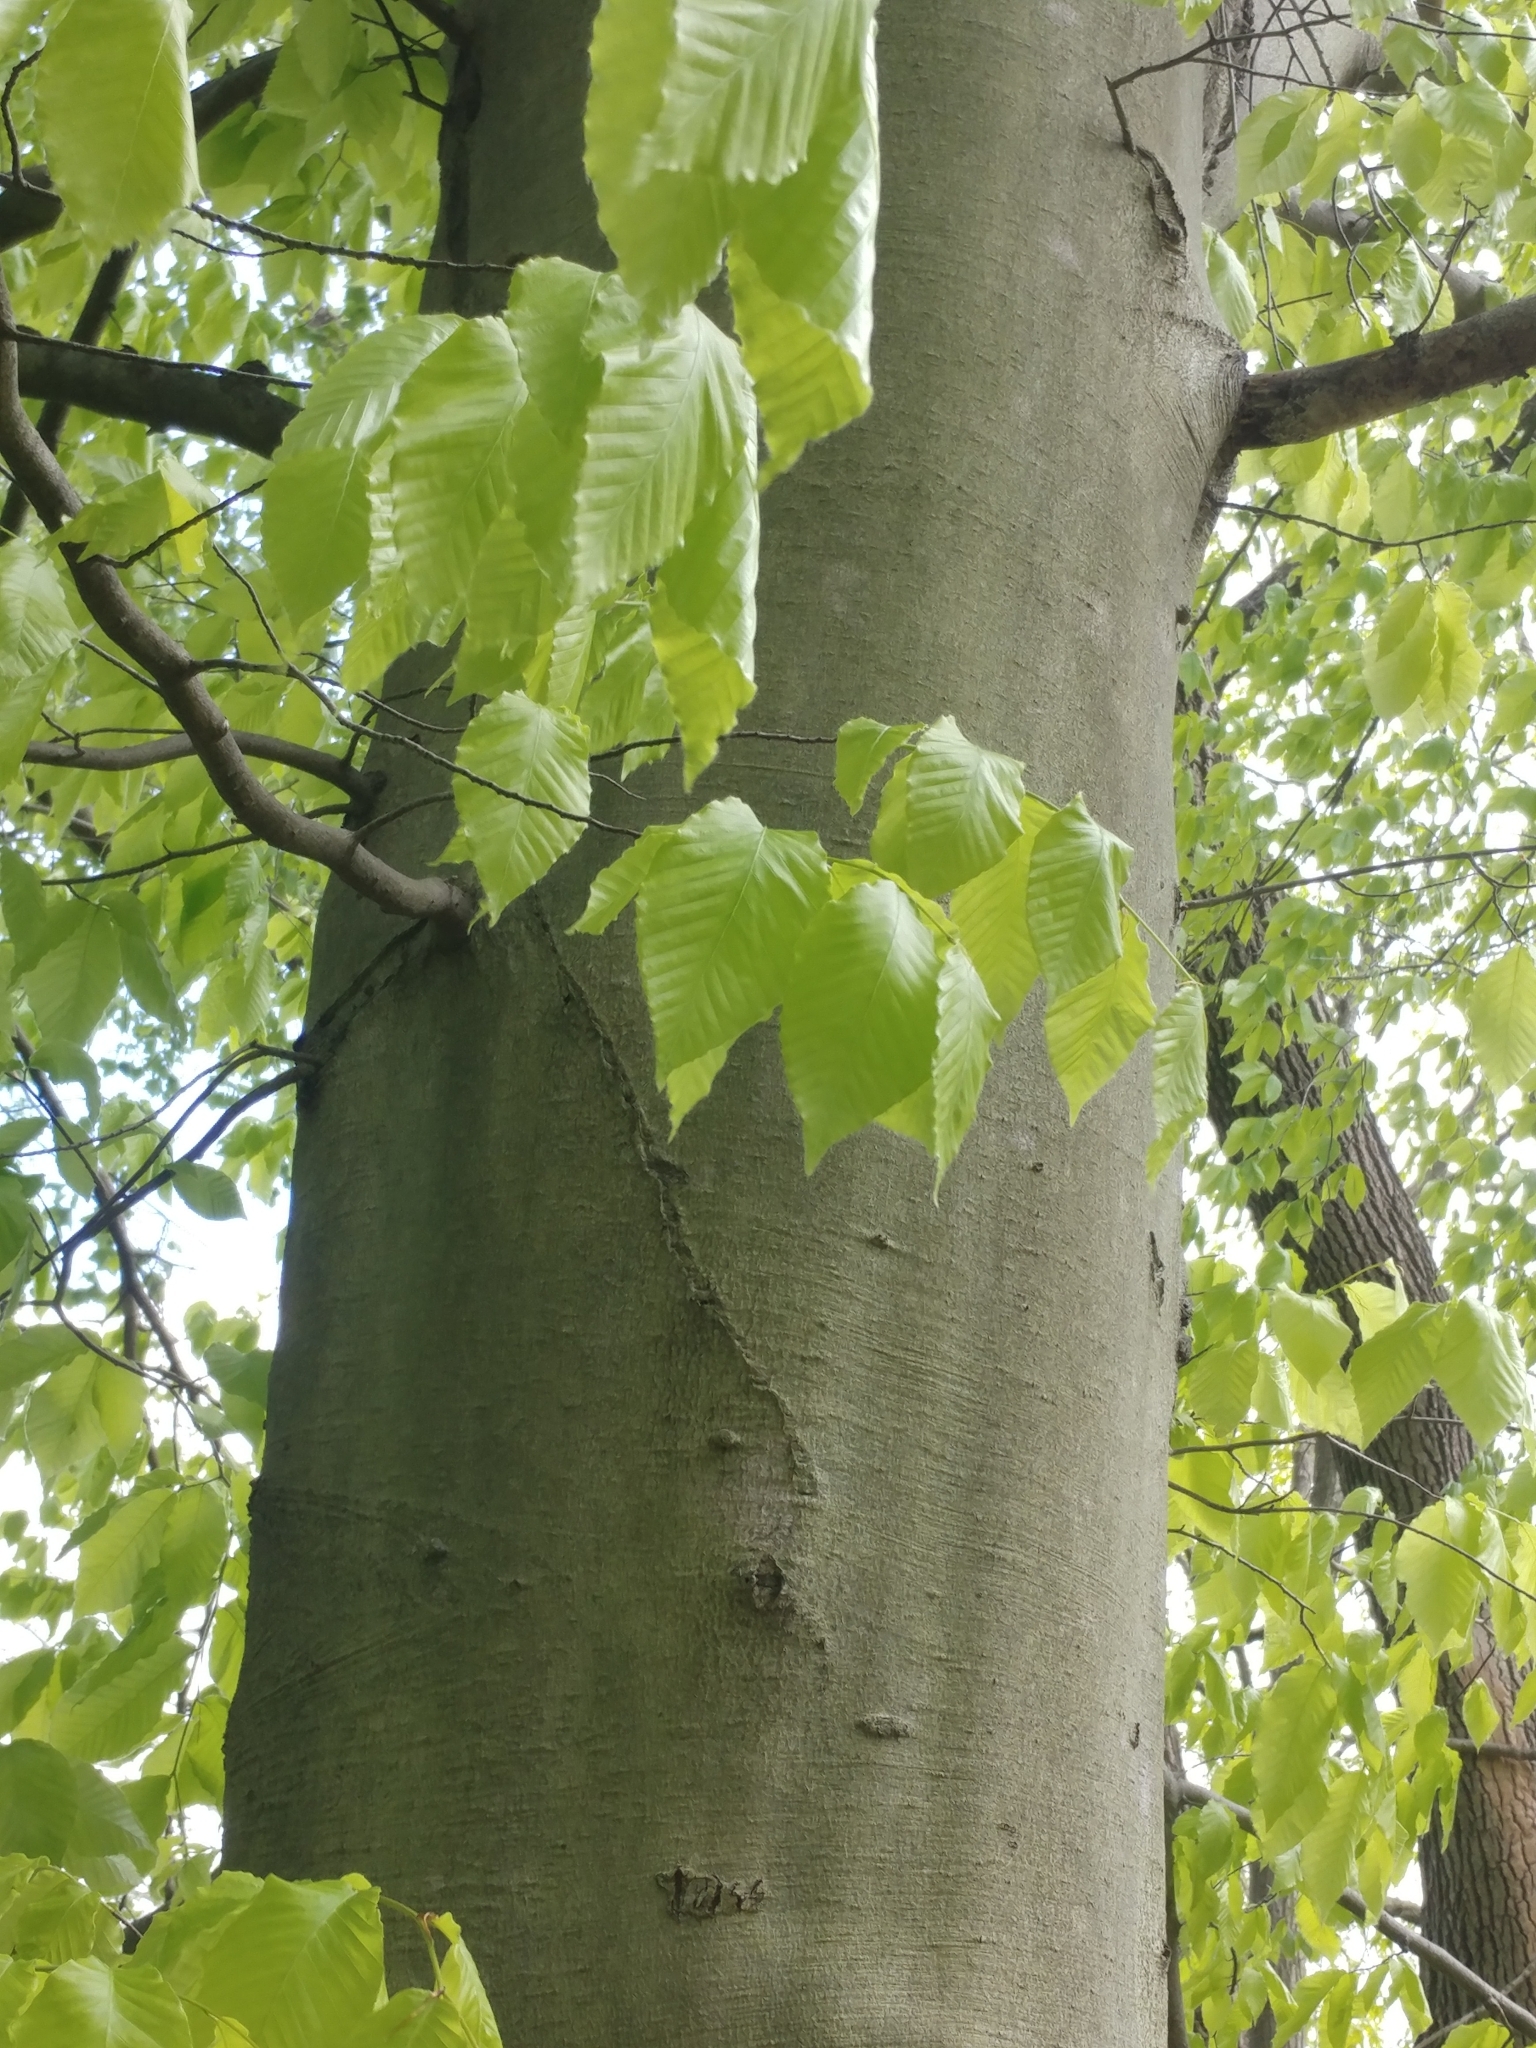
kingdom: Plantae
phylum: Tracheophyta
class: Magnoliopsida
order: Fagales
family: Fagaceae
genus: Fagus
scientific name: Fagus grandifolia
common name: American beech
